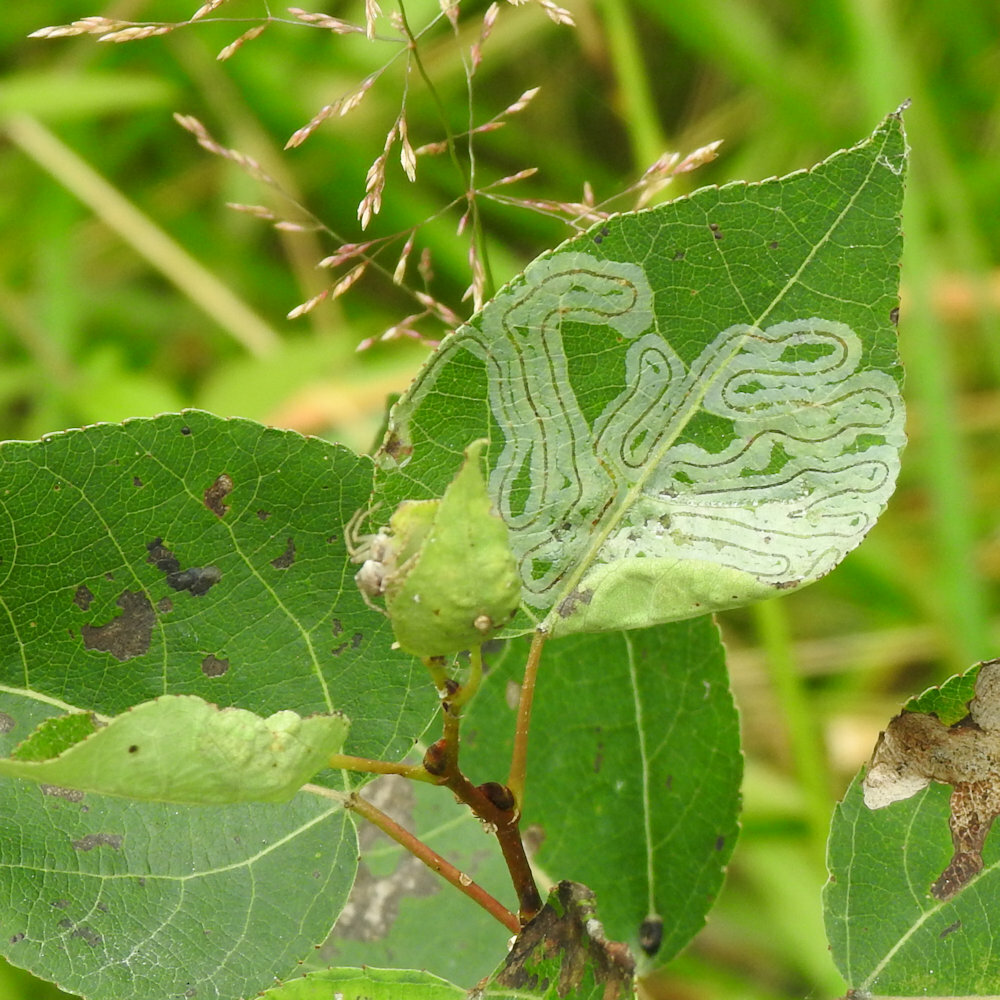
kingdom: Animalia
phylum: Arthropoda
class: Insecta
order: Lepidoptera
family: Gracillariidae
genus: Phyllocnistis
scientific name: Phyllocnistis populiella
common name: Aspen serpentine leafminer moth
